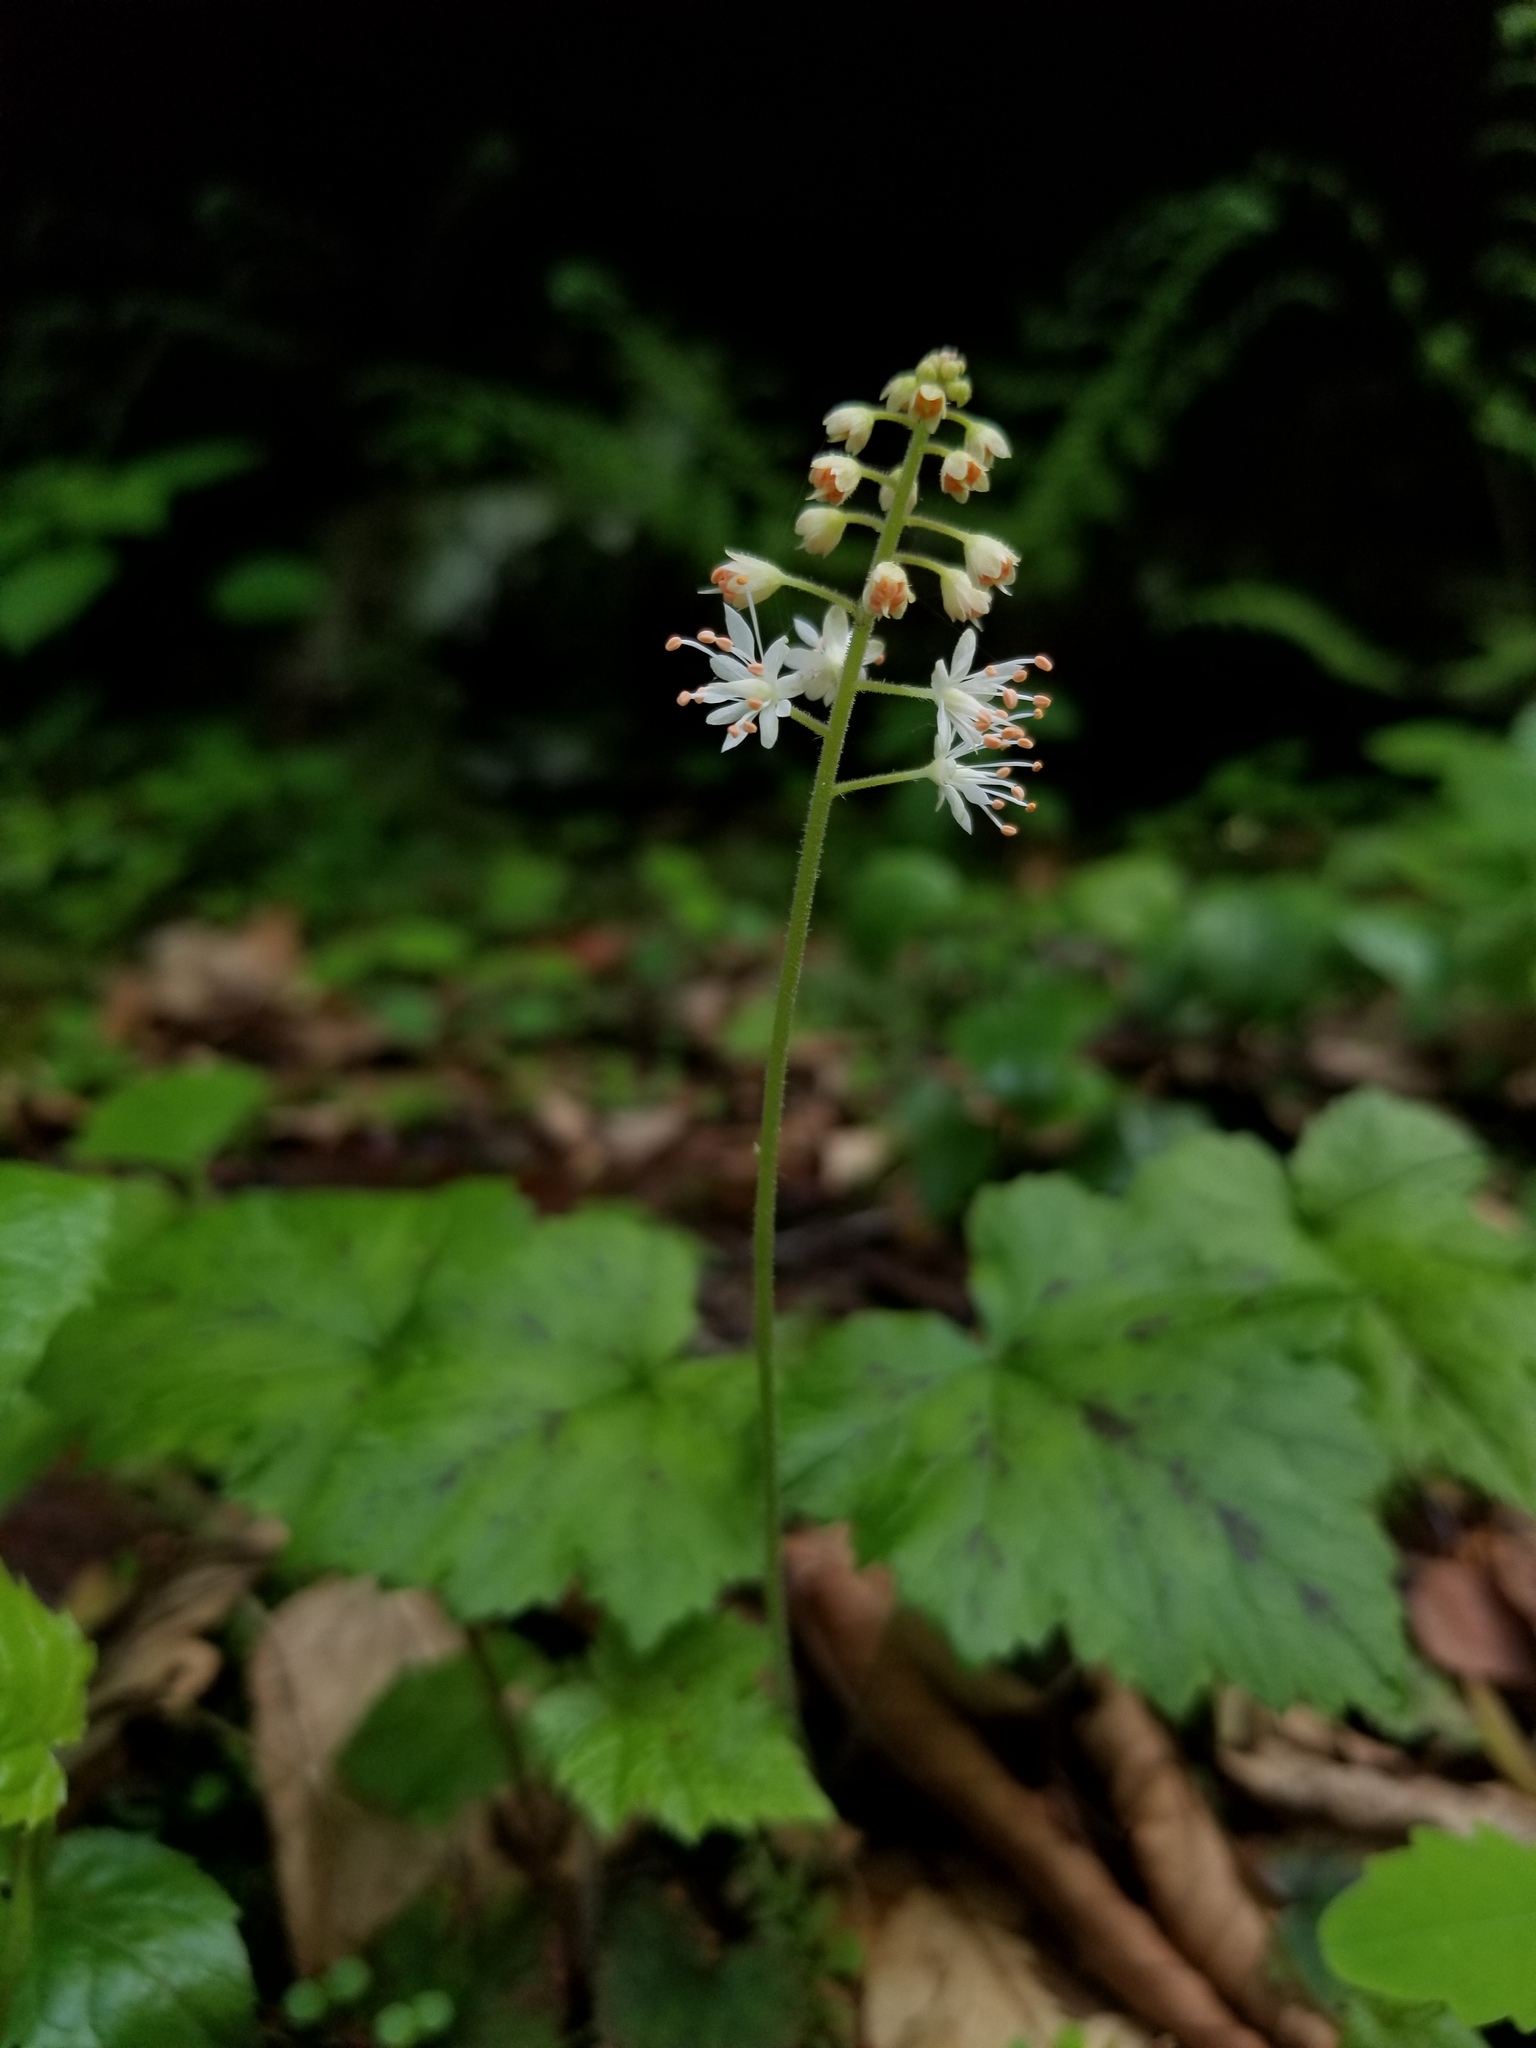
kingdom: Plantae
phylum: Tracheophyta
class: Magnoliopsida
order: Saxifragales
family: Saxifragaceae
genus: Tiarella
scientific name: Tiarella stolonifera
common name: Stoloniferous foamflower
